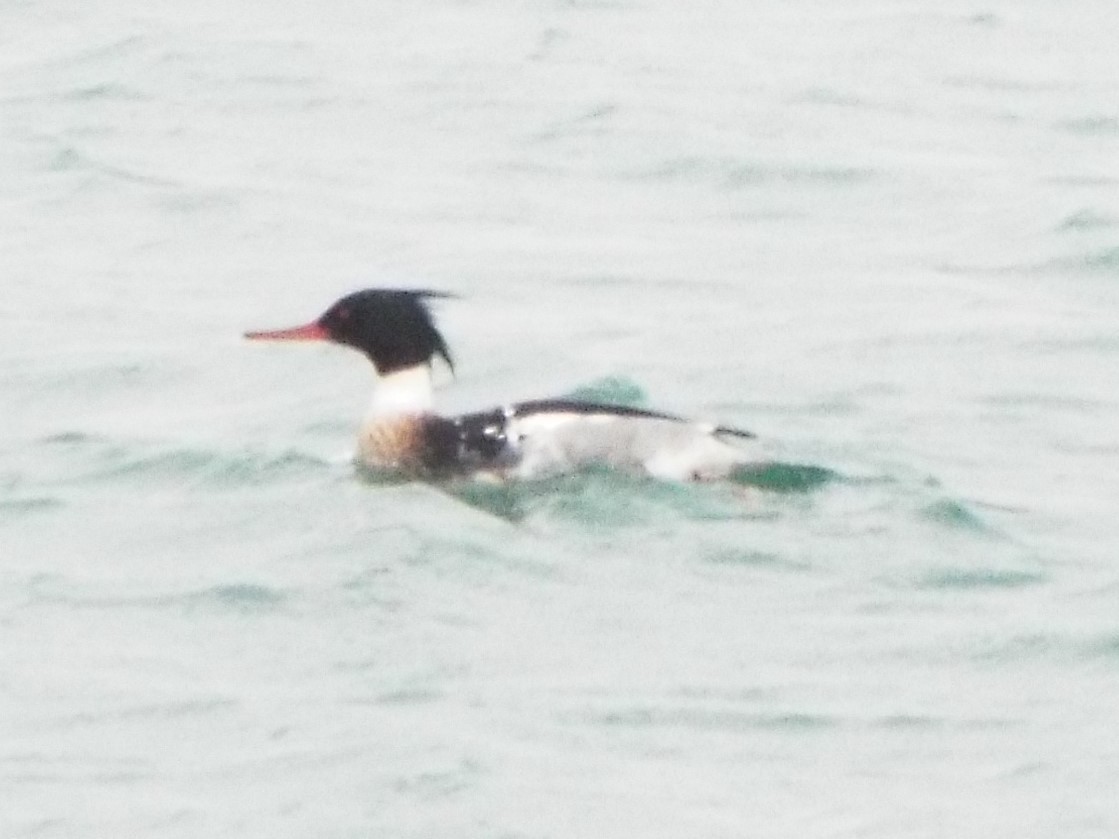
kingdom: Animalia
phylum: Chordata
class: Aves
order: Anseriformes
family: Anatidae
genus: Mergus
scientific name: Mergus serrator
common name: Red-breasted merganser
